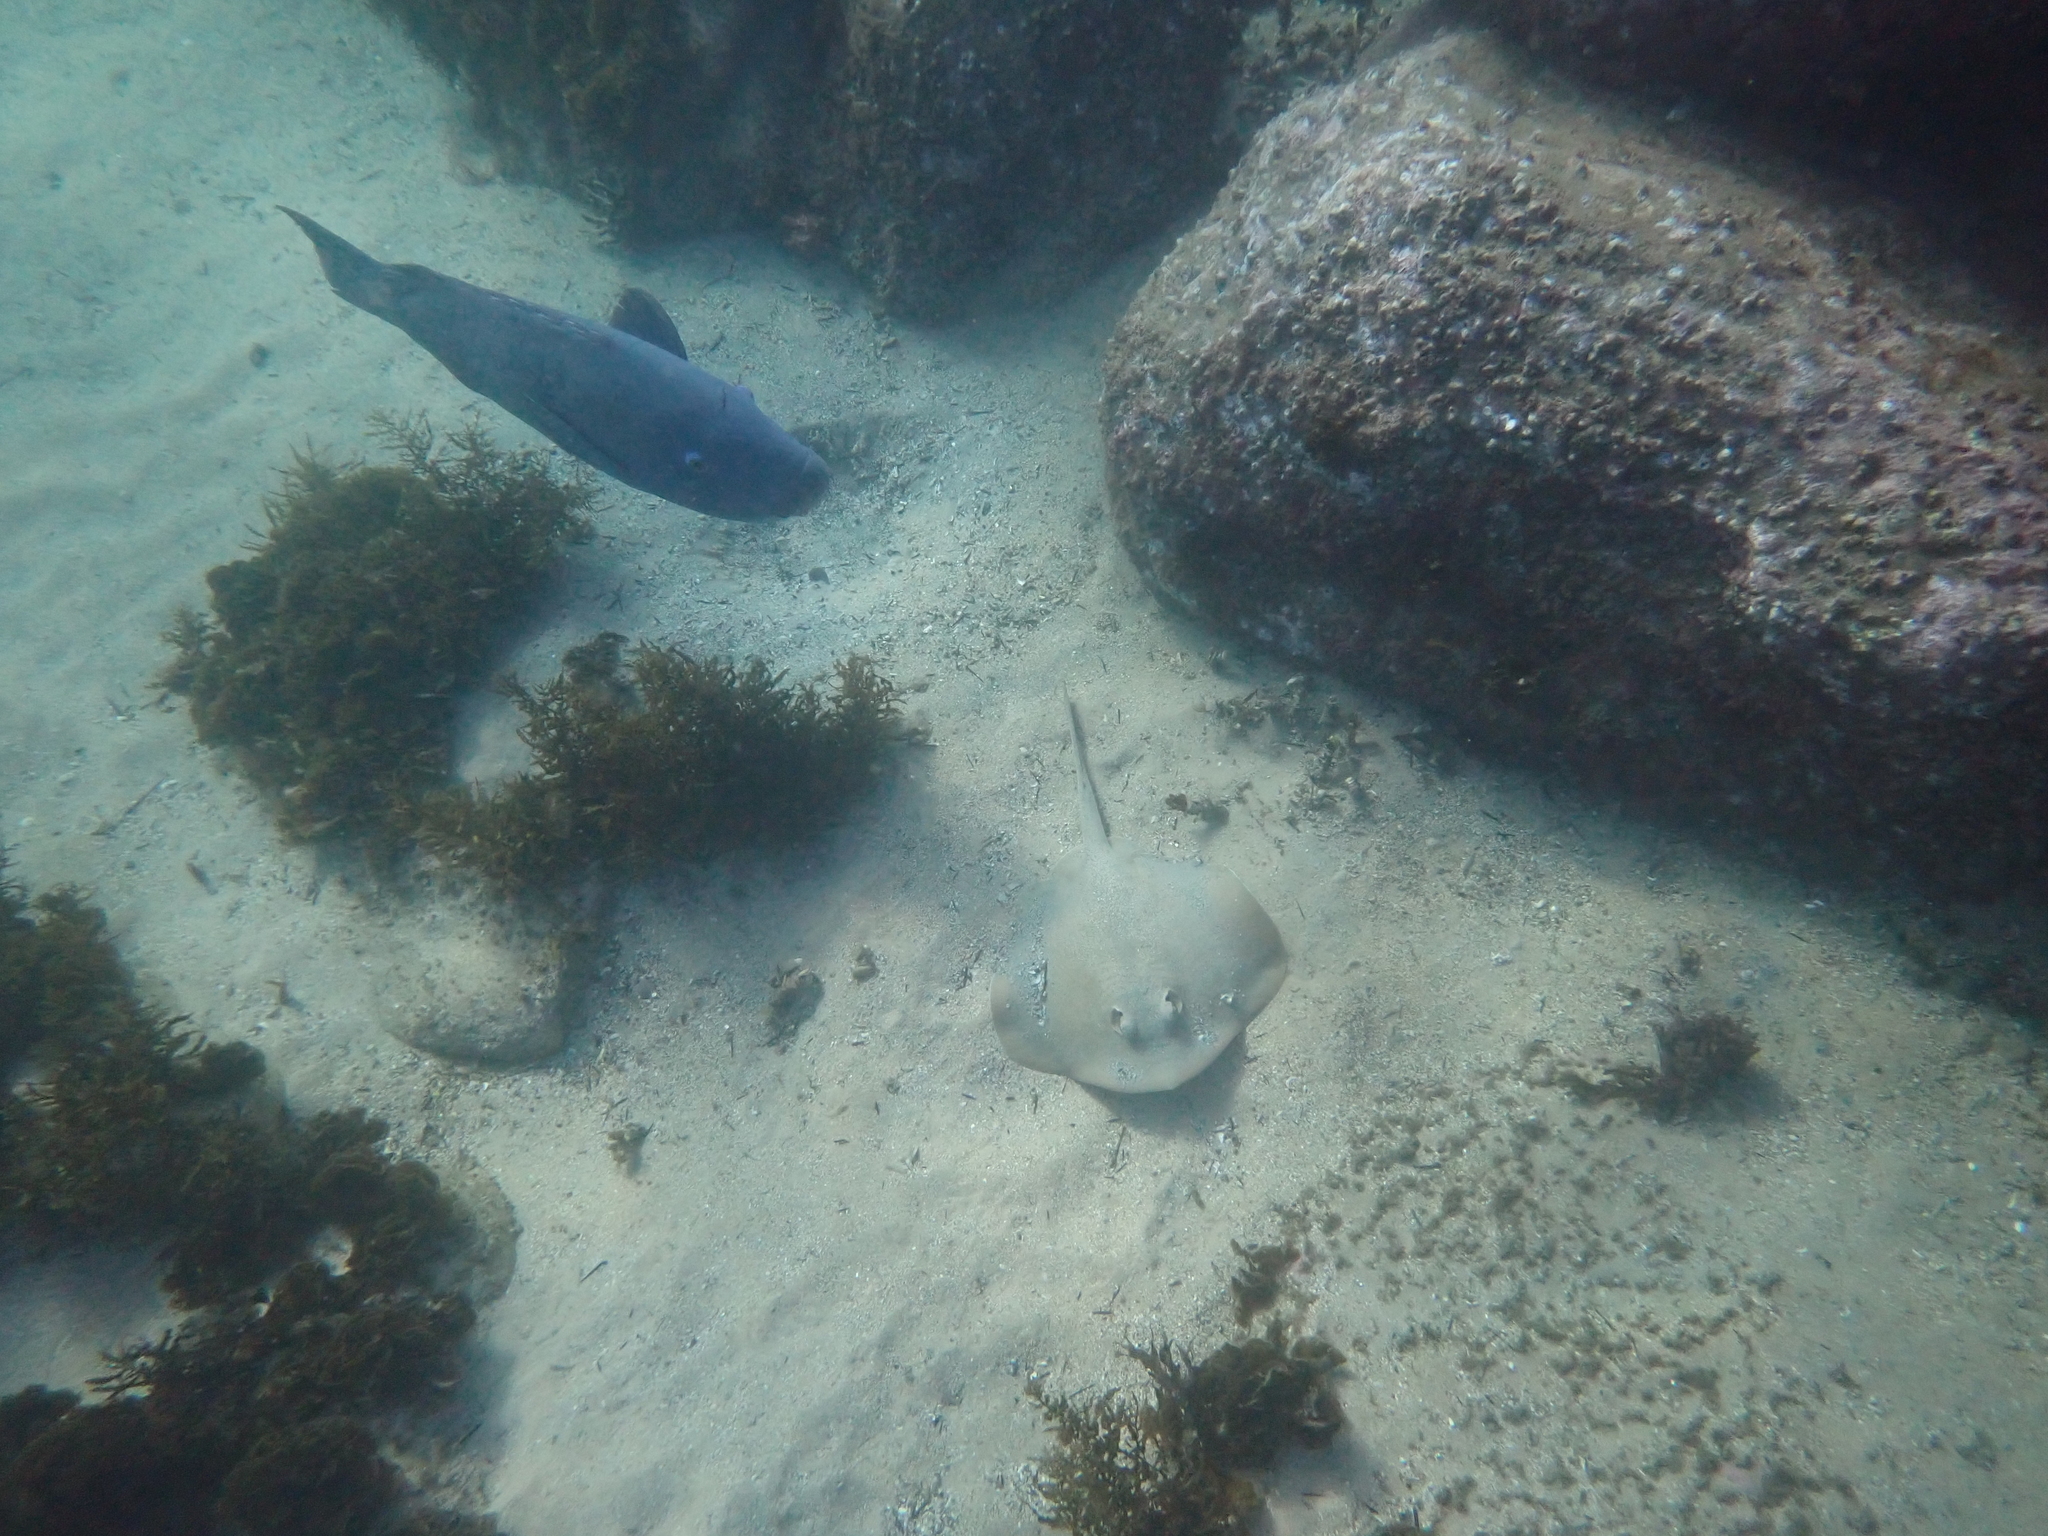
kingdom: Animalia
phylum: Chordata
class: Elasmobranchii
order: Myliobatiformes
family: Urolophidae
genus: Trygonoptera
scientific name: Trygonoptera testacea
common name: Common stingaree
